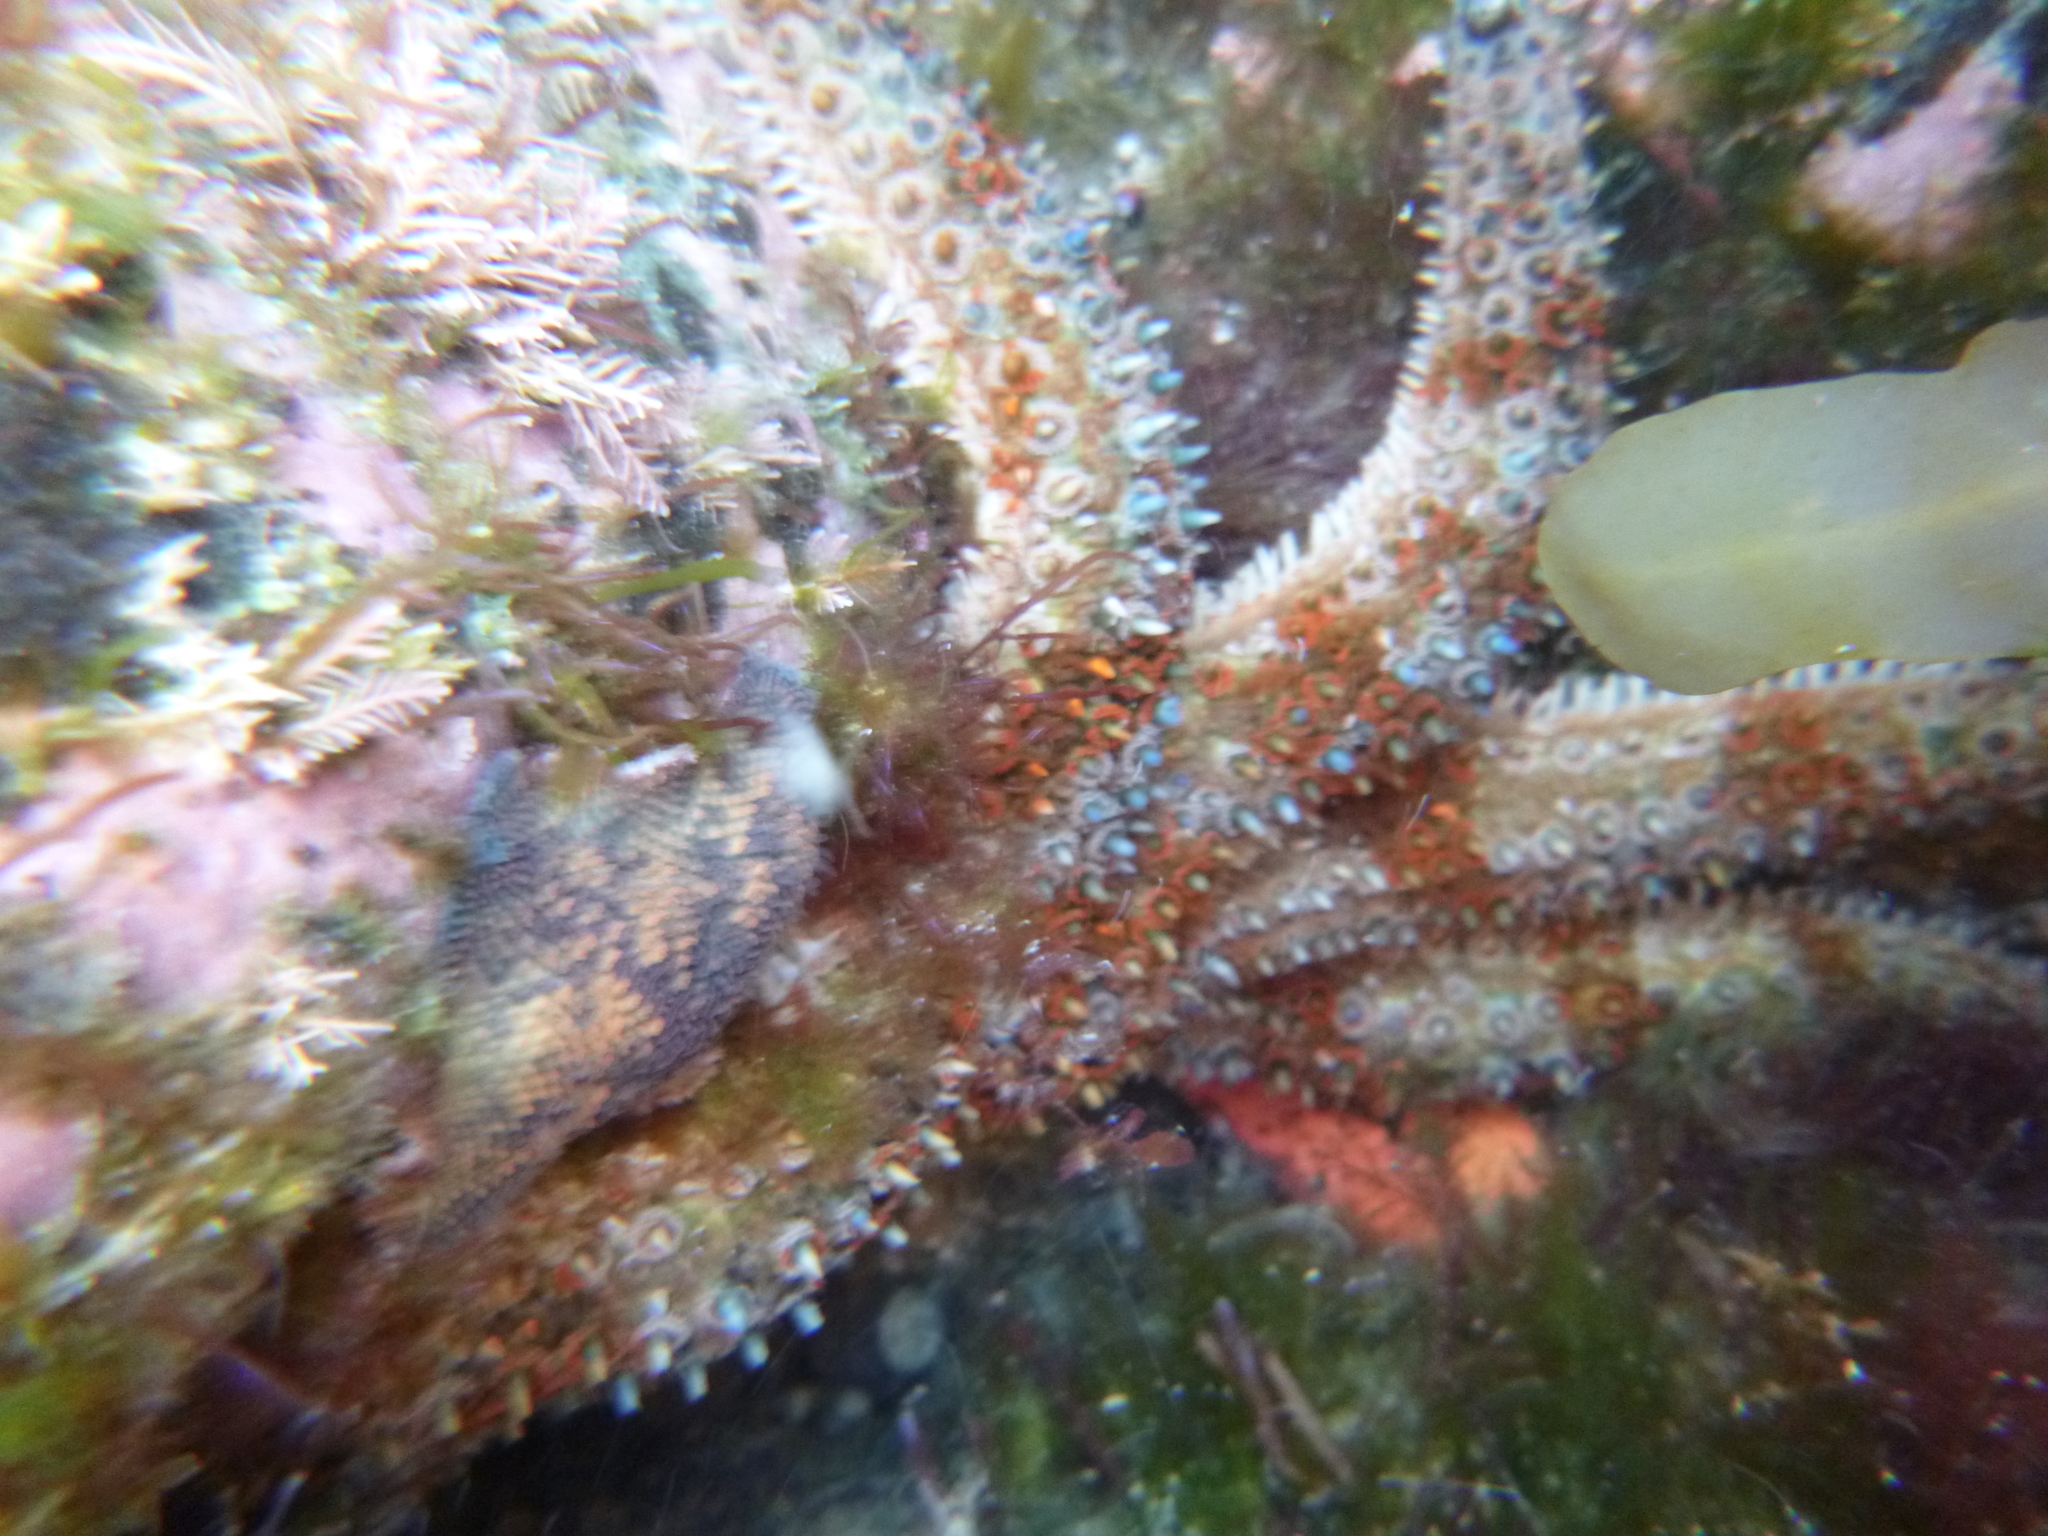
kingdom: Animalia
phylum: Echinodermata
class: Asteroidea
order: Forcipulatida
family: Asteriidae
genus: Coscinasterias
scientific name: Coscinasterias muricata
